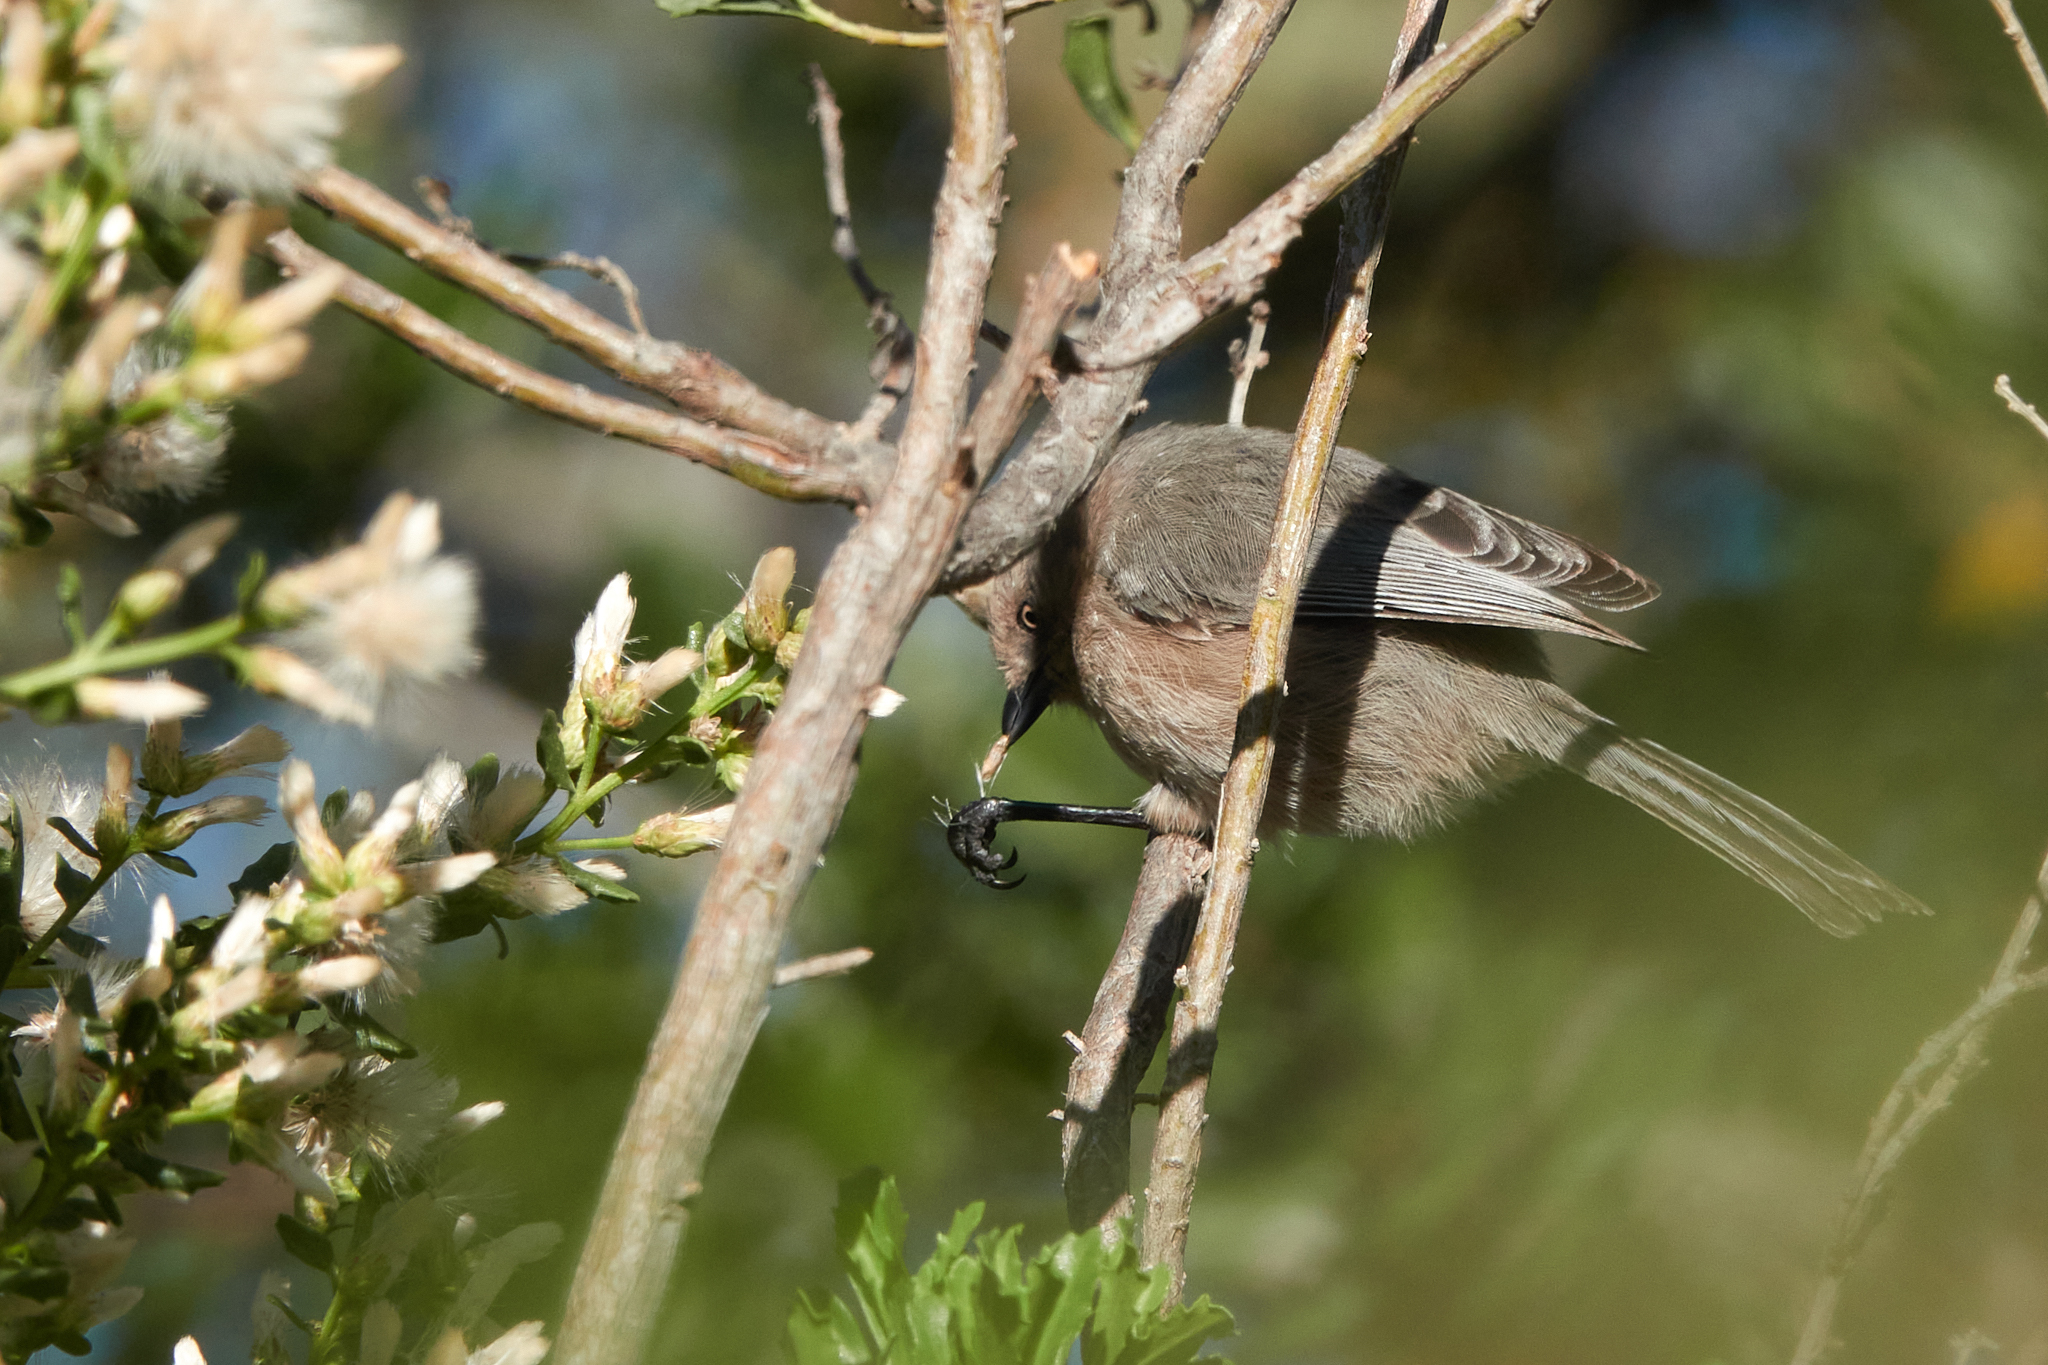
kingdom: Animalia
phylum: Chordata
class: Aves
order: Passeriformes
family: Aegithalidae
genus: Psaltriparus
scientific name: Psaltriparus minimus
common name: American bushtit
